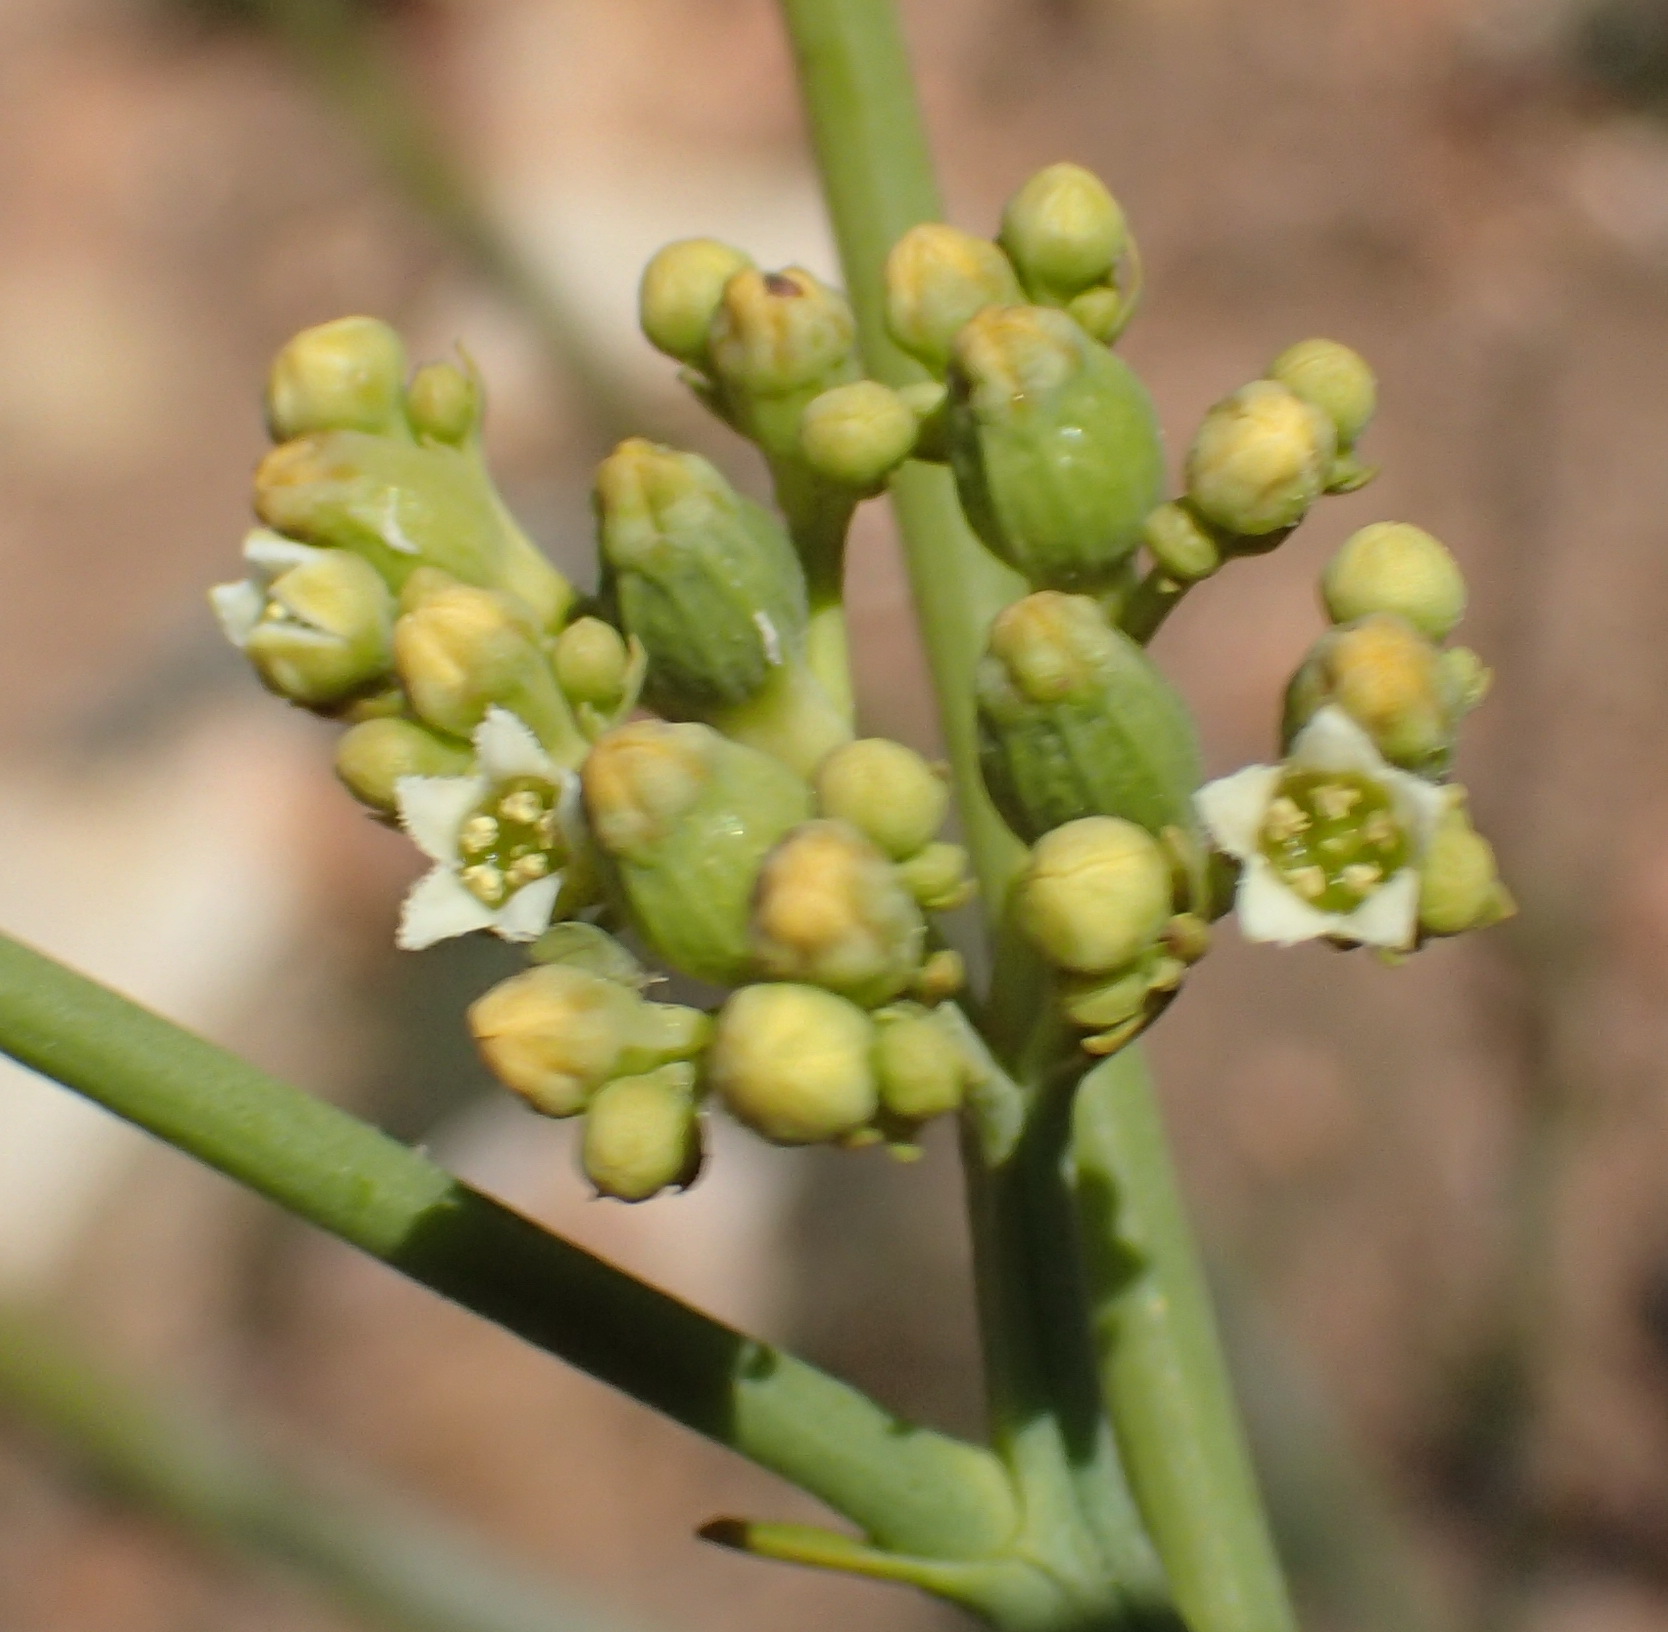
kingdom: Plantae
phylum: Tracheophyta
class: Magnoliopsida
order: Santalales
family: Thesiaceae
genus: Thesium
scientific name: Thesium strictum
